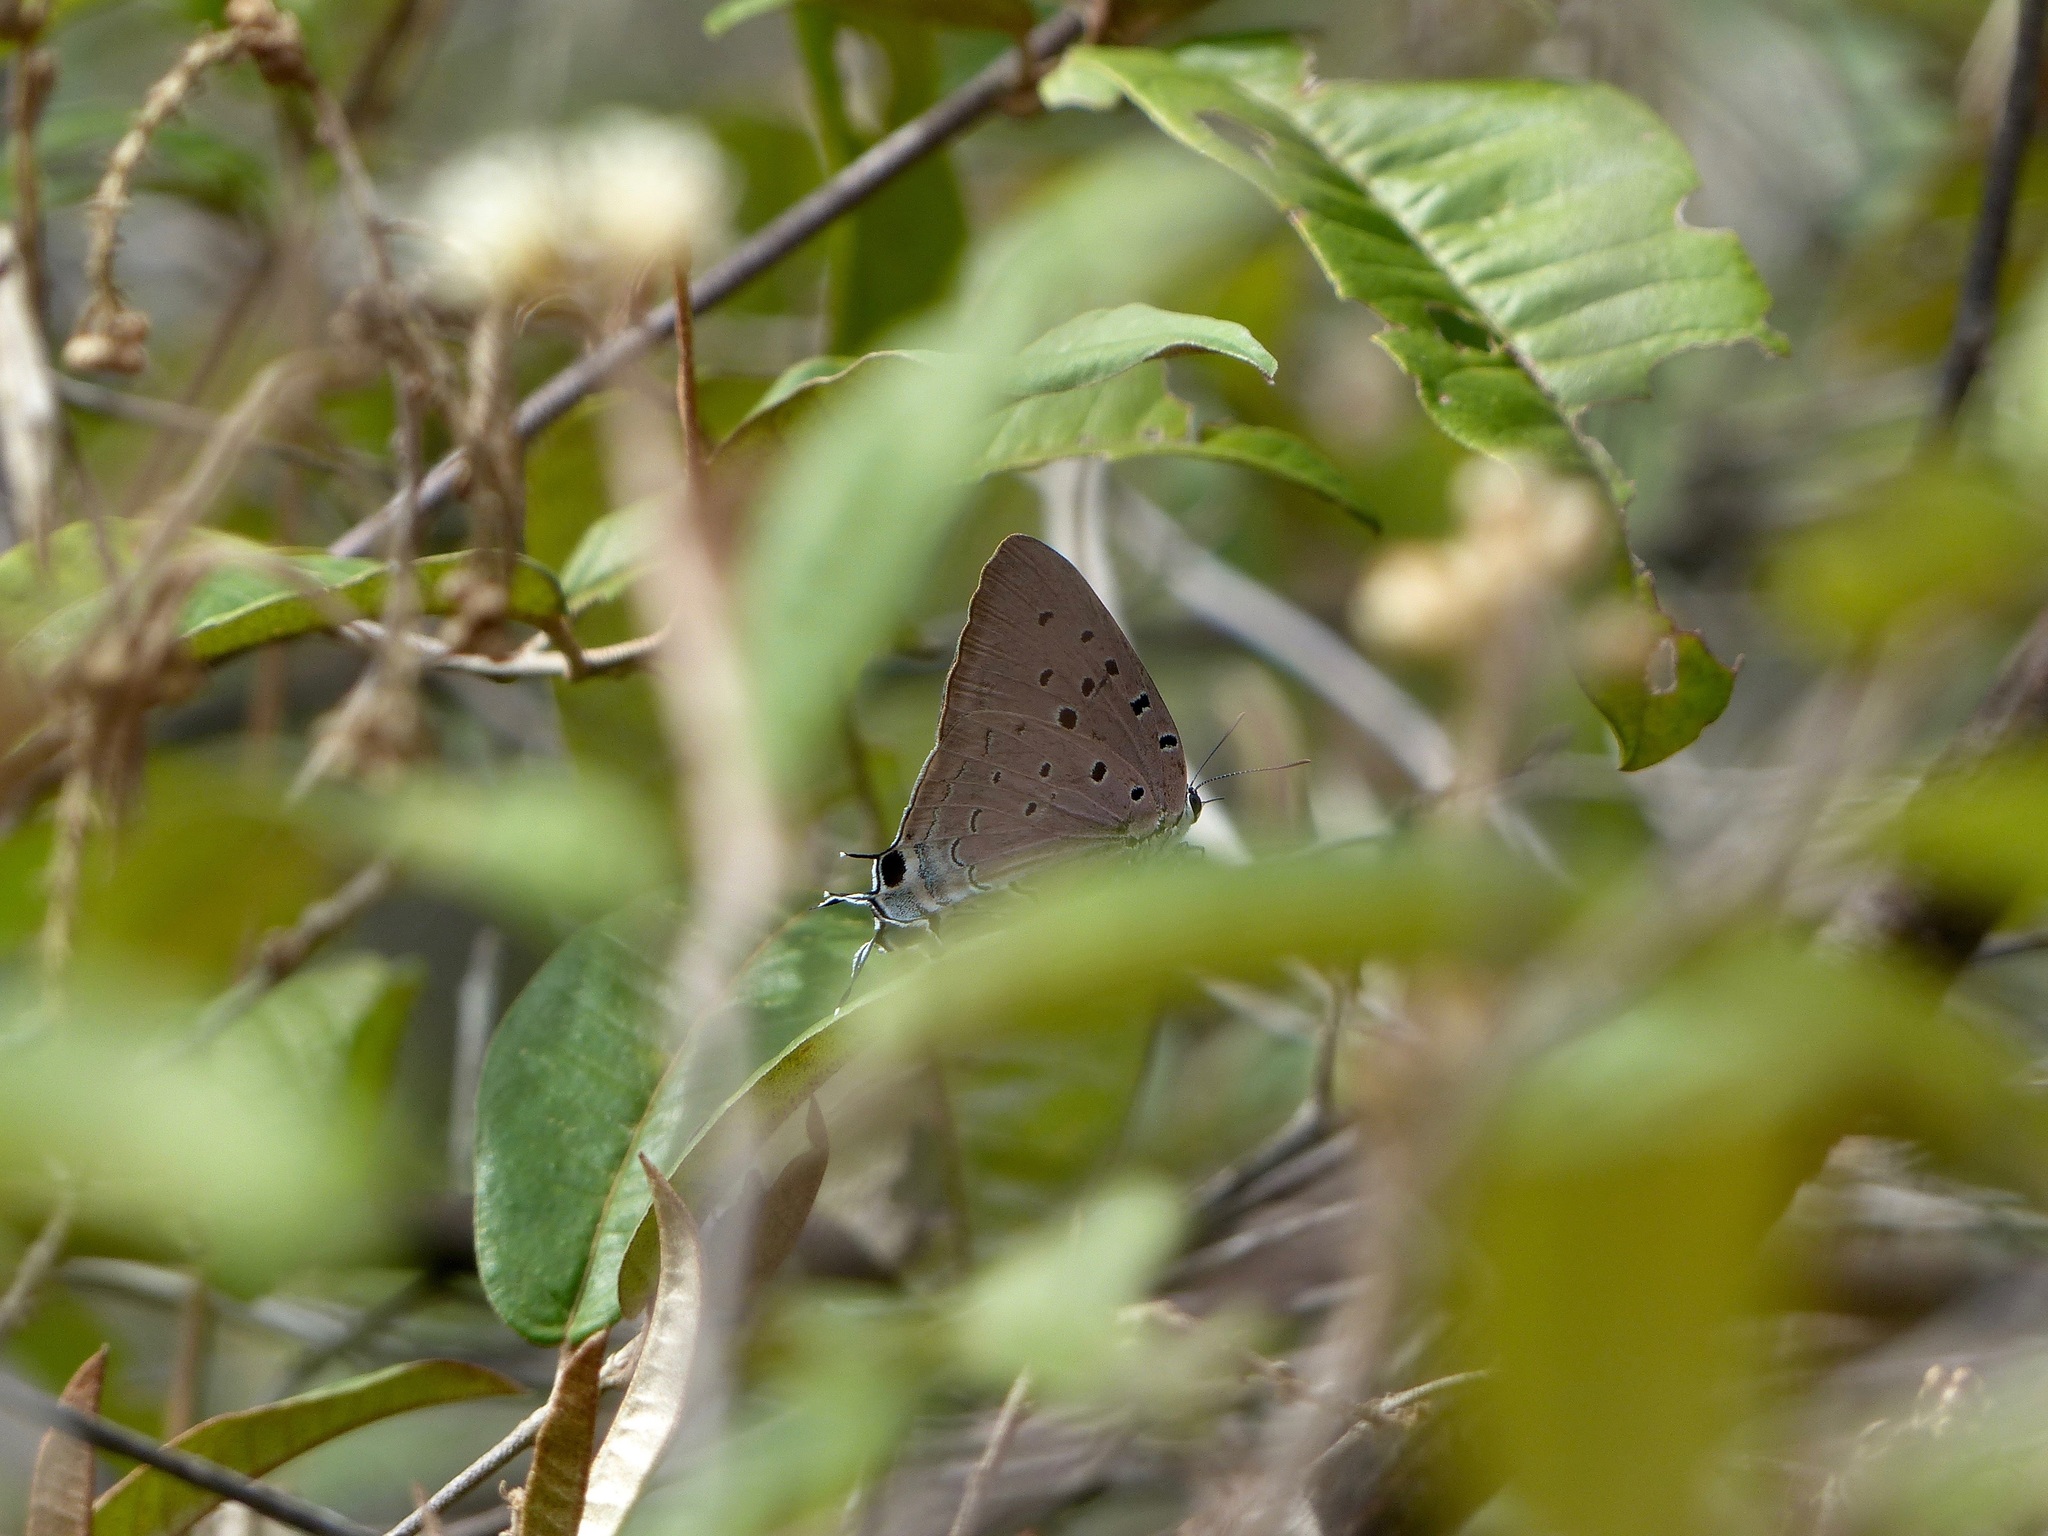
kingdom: Animalia
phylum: Arthropoda
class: Insecta
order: Lepidoptera
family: Lycaenidae
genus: Pseudolycaena
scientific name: Pseudolycaena marsyas
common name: Marsyas hairstreak
